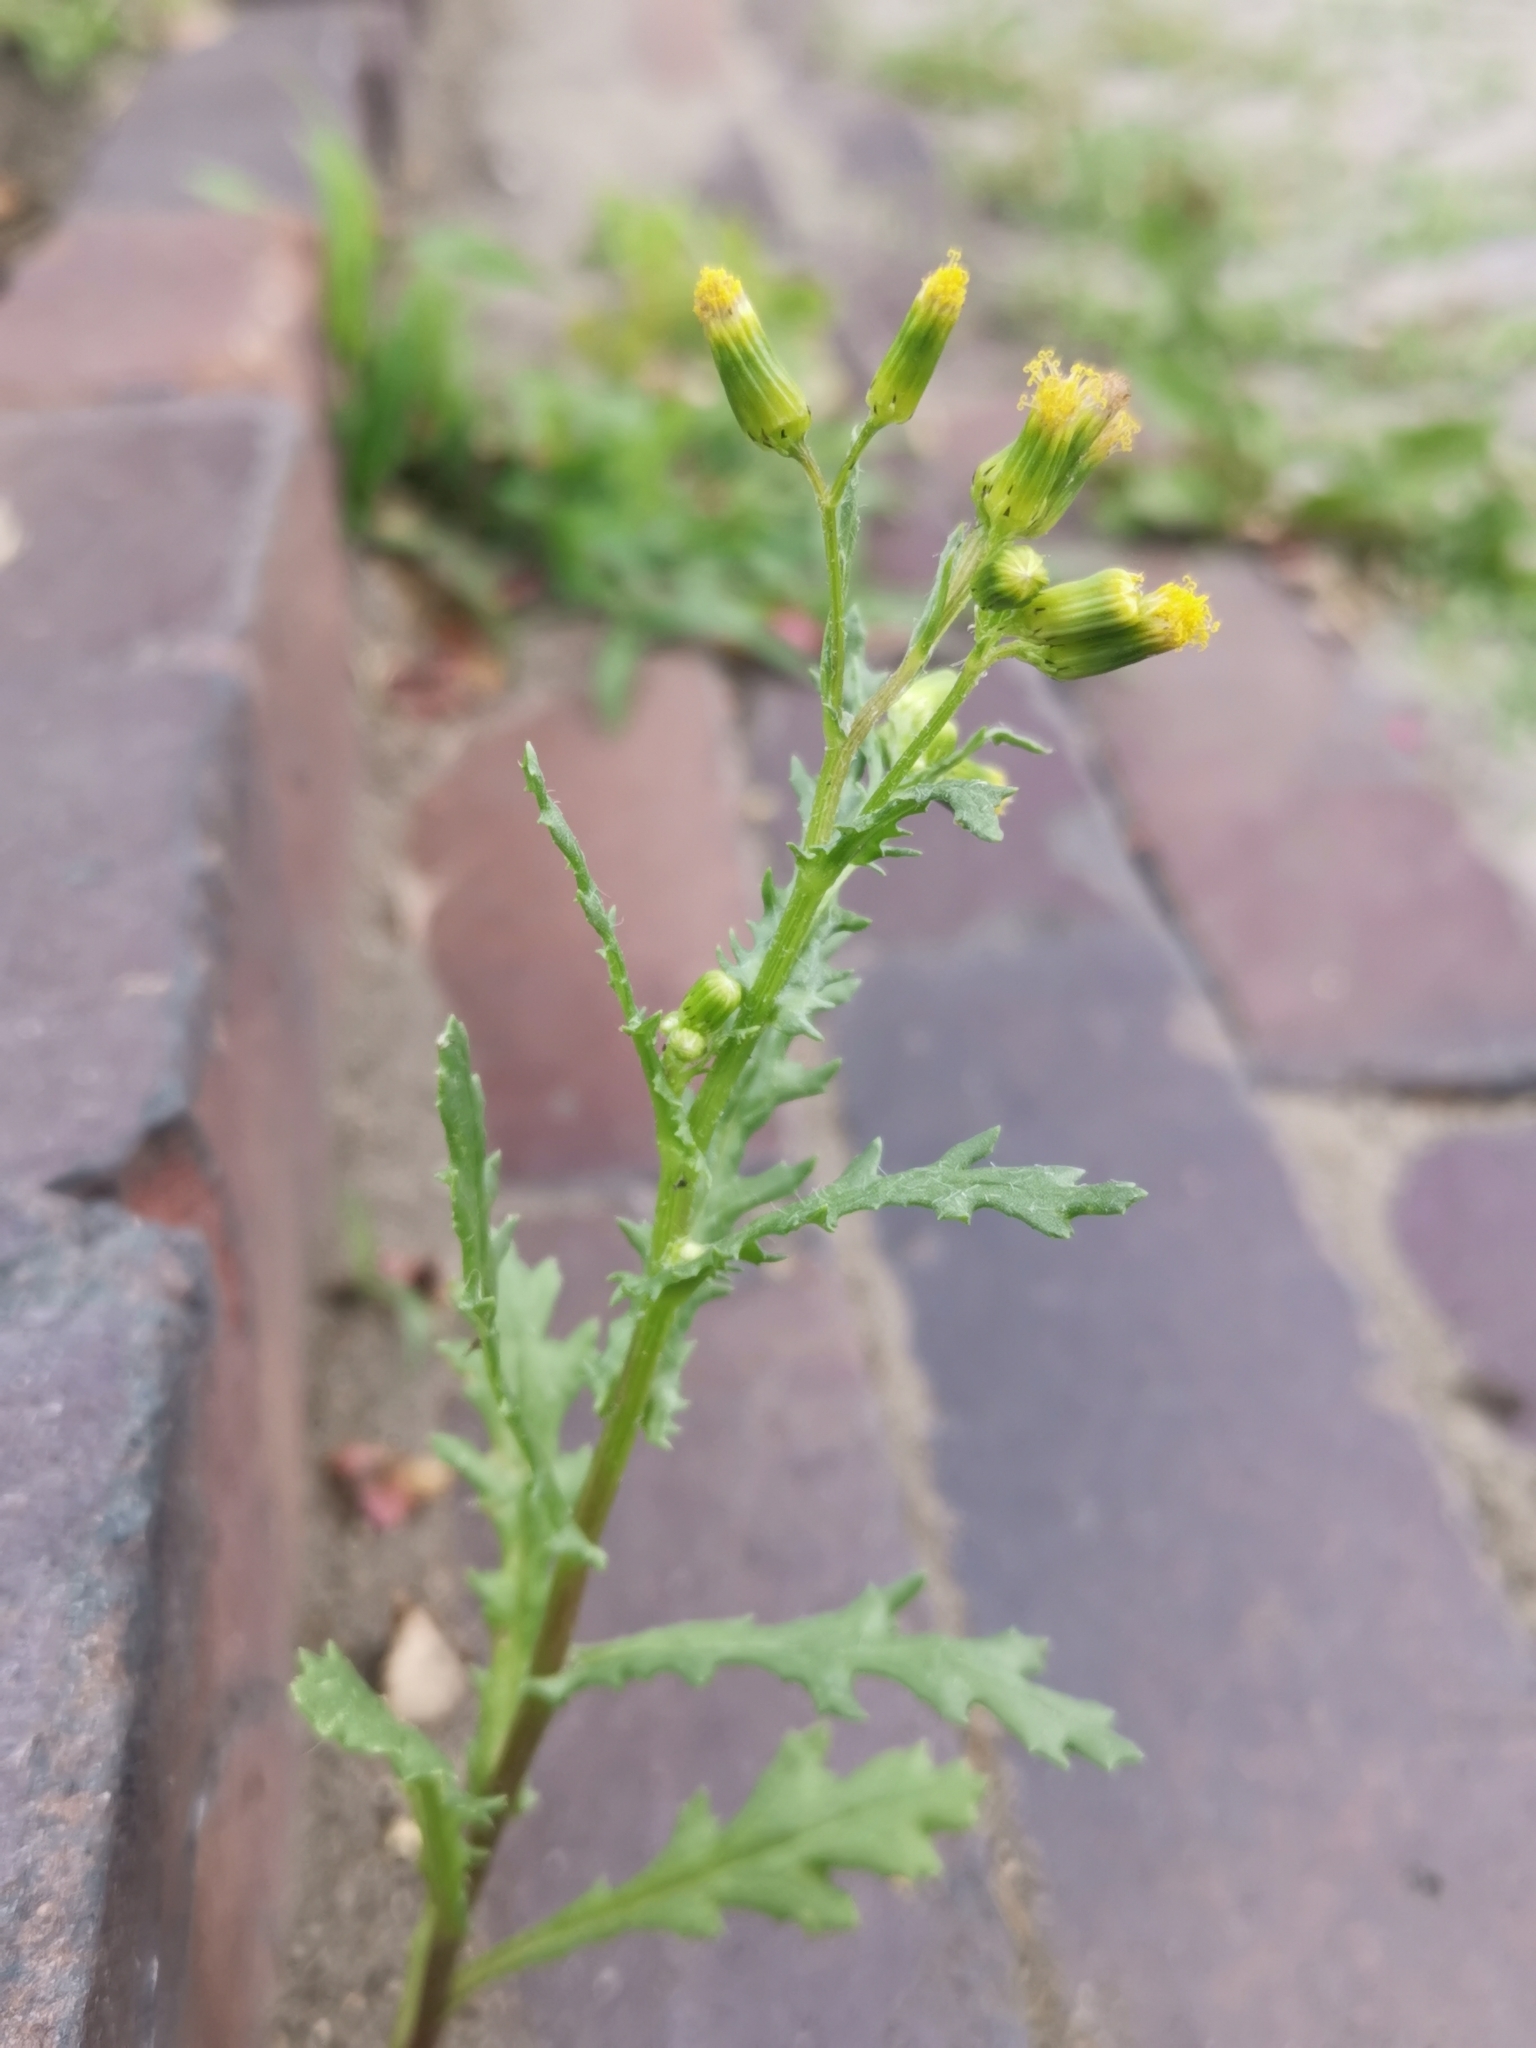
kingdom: Plantae
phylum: Tracheophyta
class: Magnoliopsida
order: Asterales
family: Asteraceae
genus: Senecio
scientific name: Senecio vulgaris
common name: Old-man-in-the-spring
